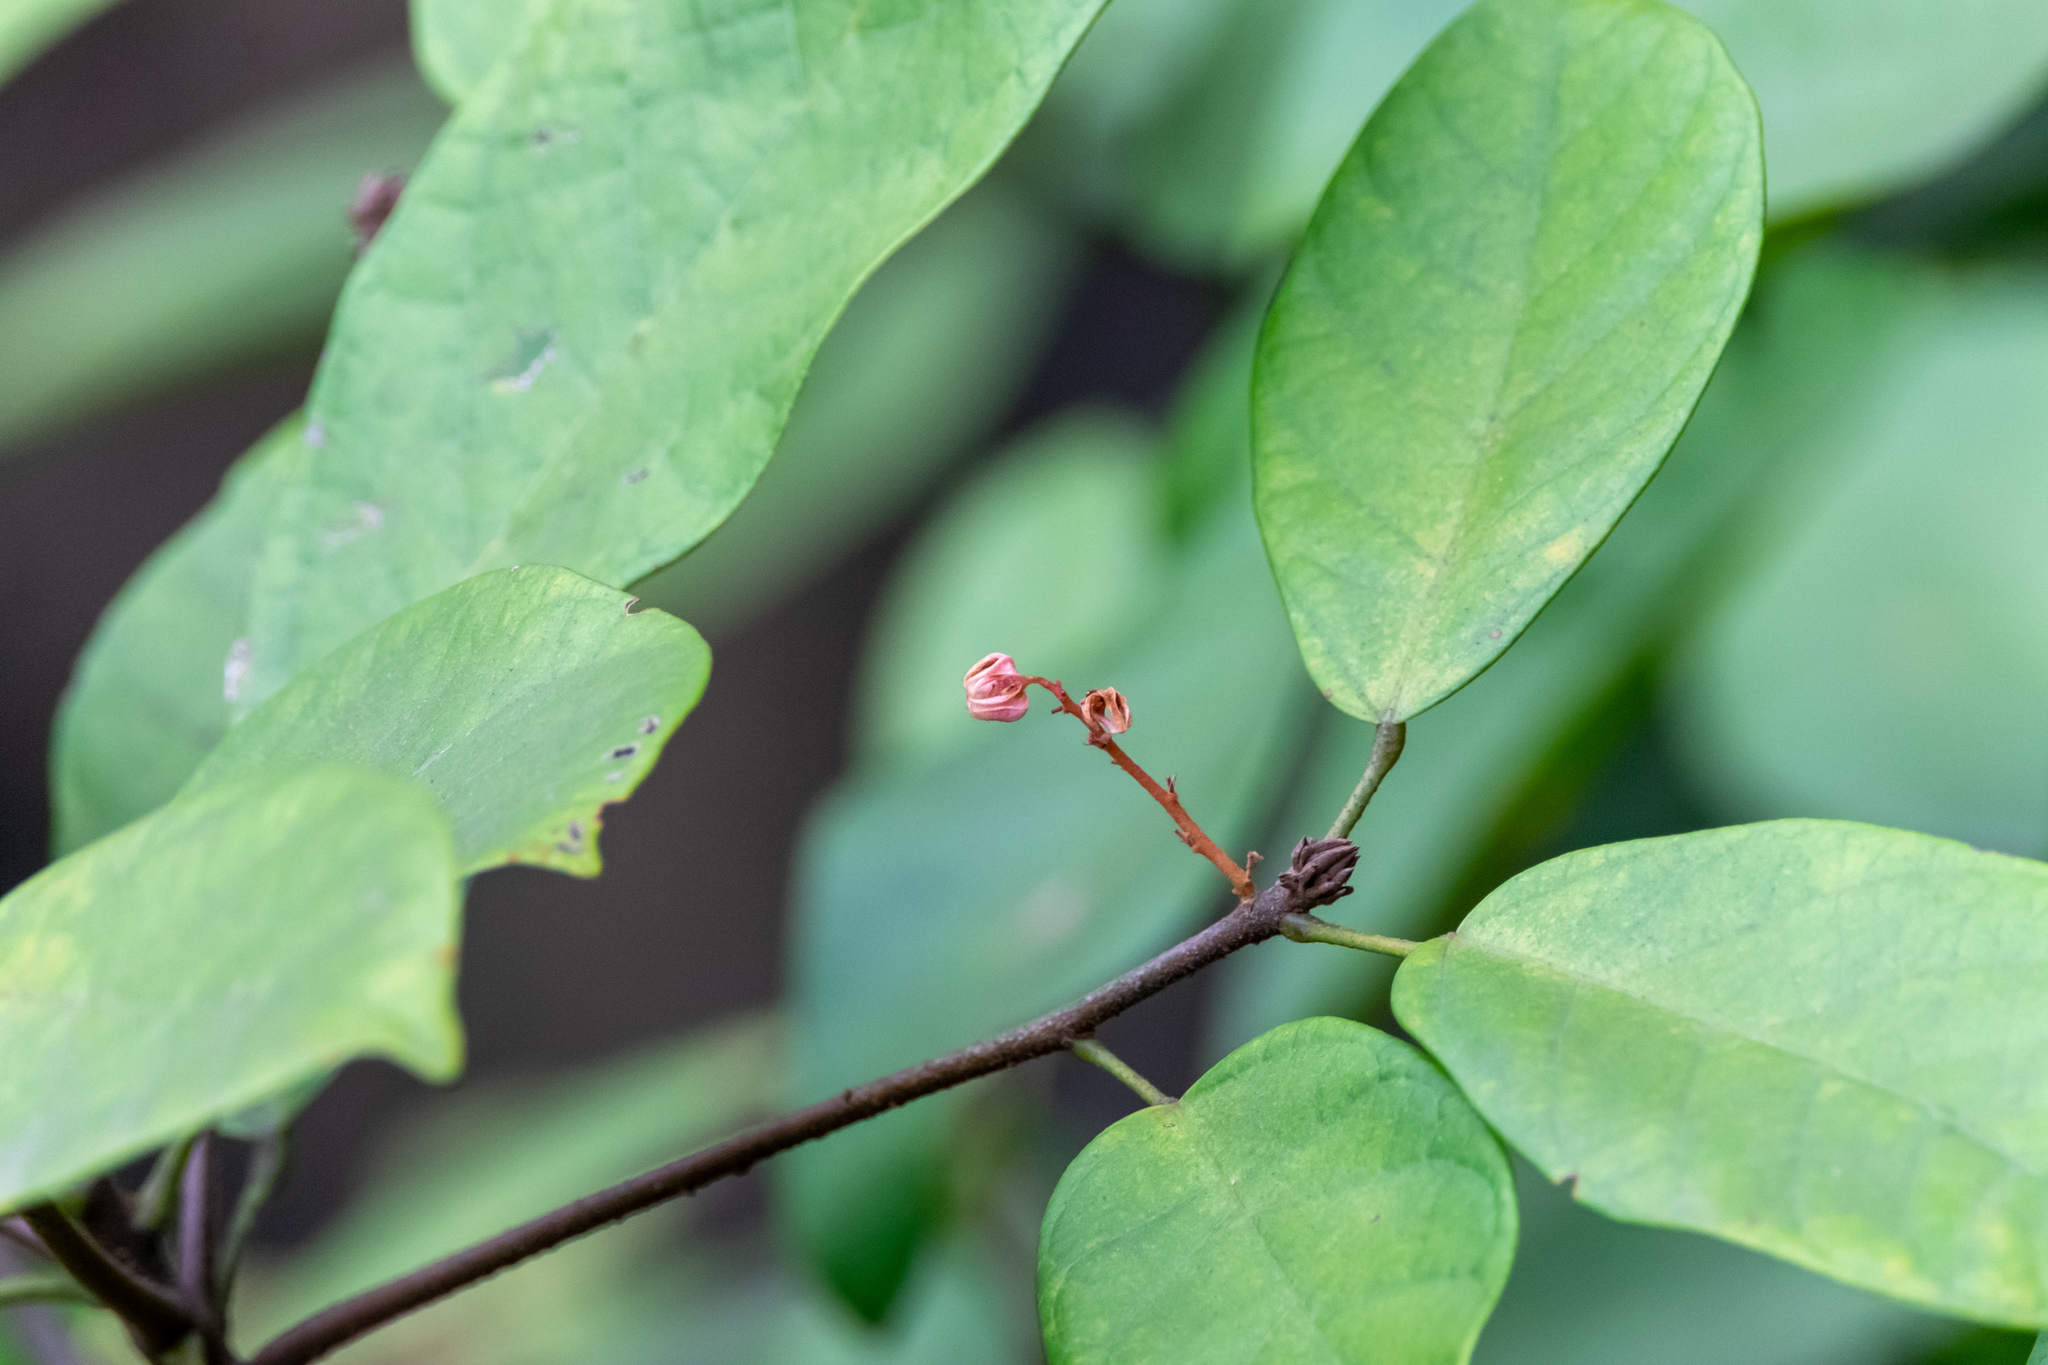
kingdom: Plantae
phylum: Tracheophyta
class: Magnoliopsida
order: Malvales
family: Malvaceae
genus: Sterculia
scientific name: Sterculia lanceolata
